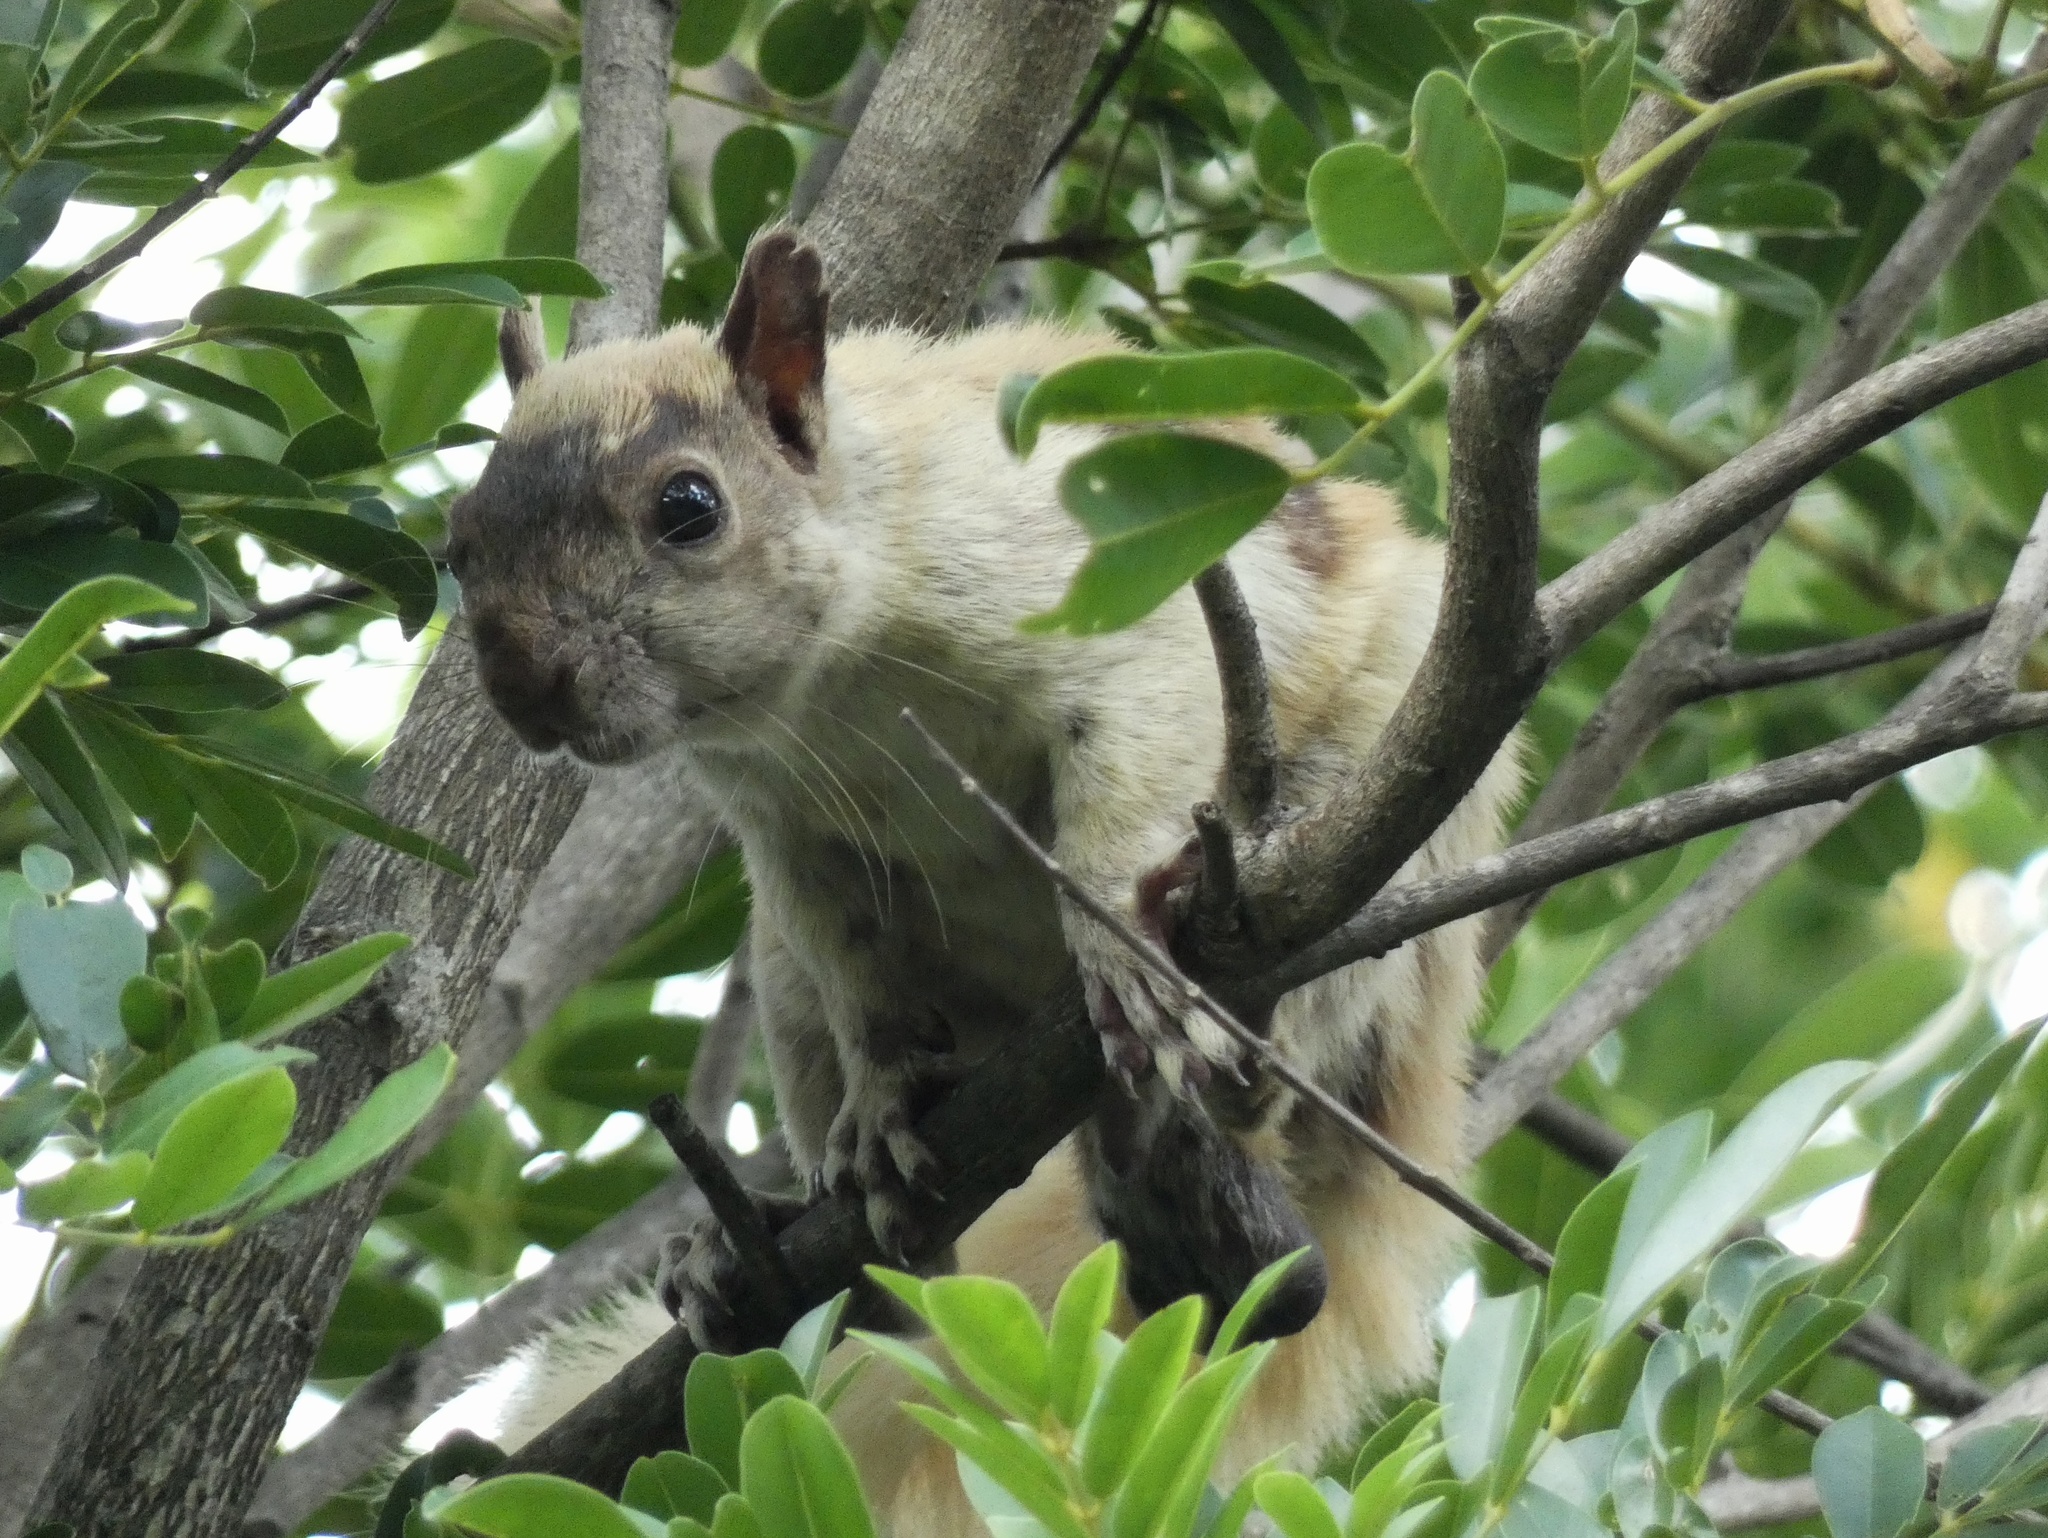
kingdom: Animalia
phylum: Chordata
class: Mammalia
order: Rodentia
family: Sciuridae
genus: Sciurus
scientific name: Sciurus variegatoides
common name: Variegated squirrel
